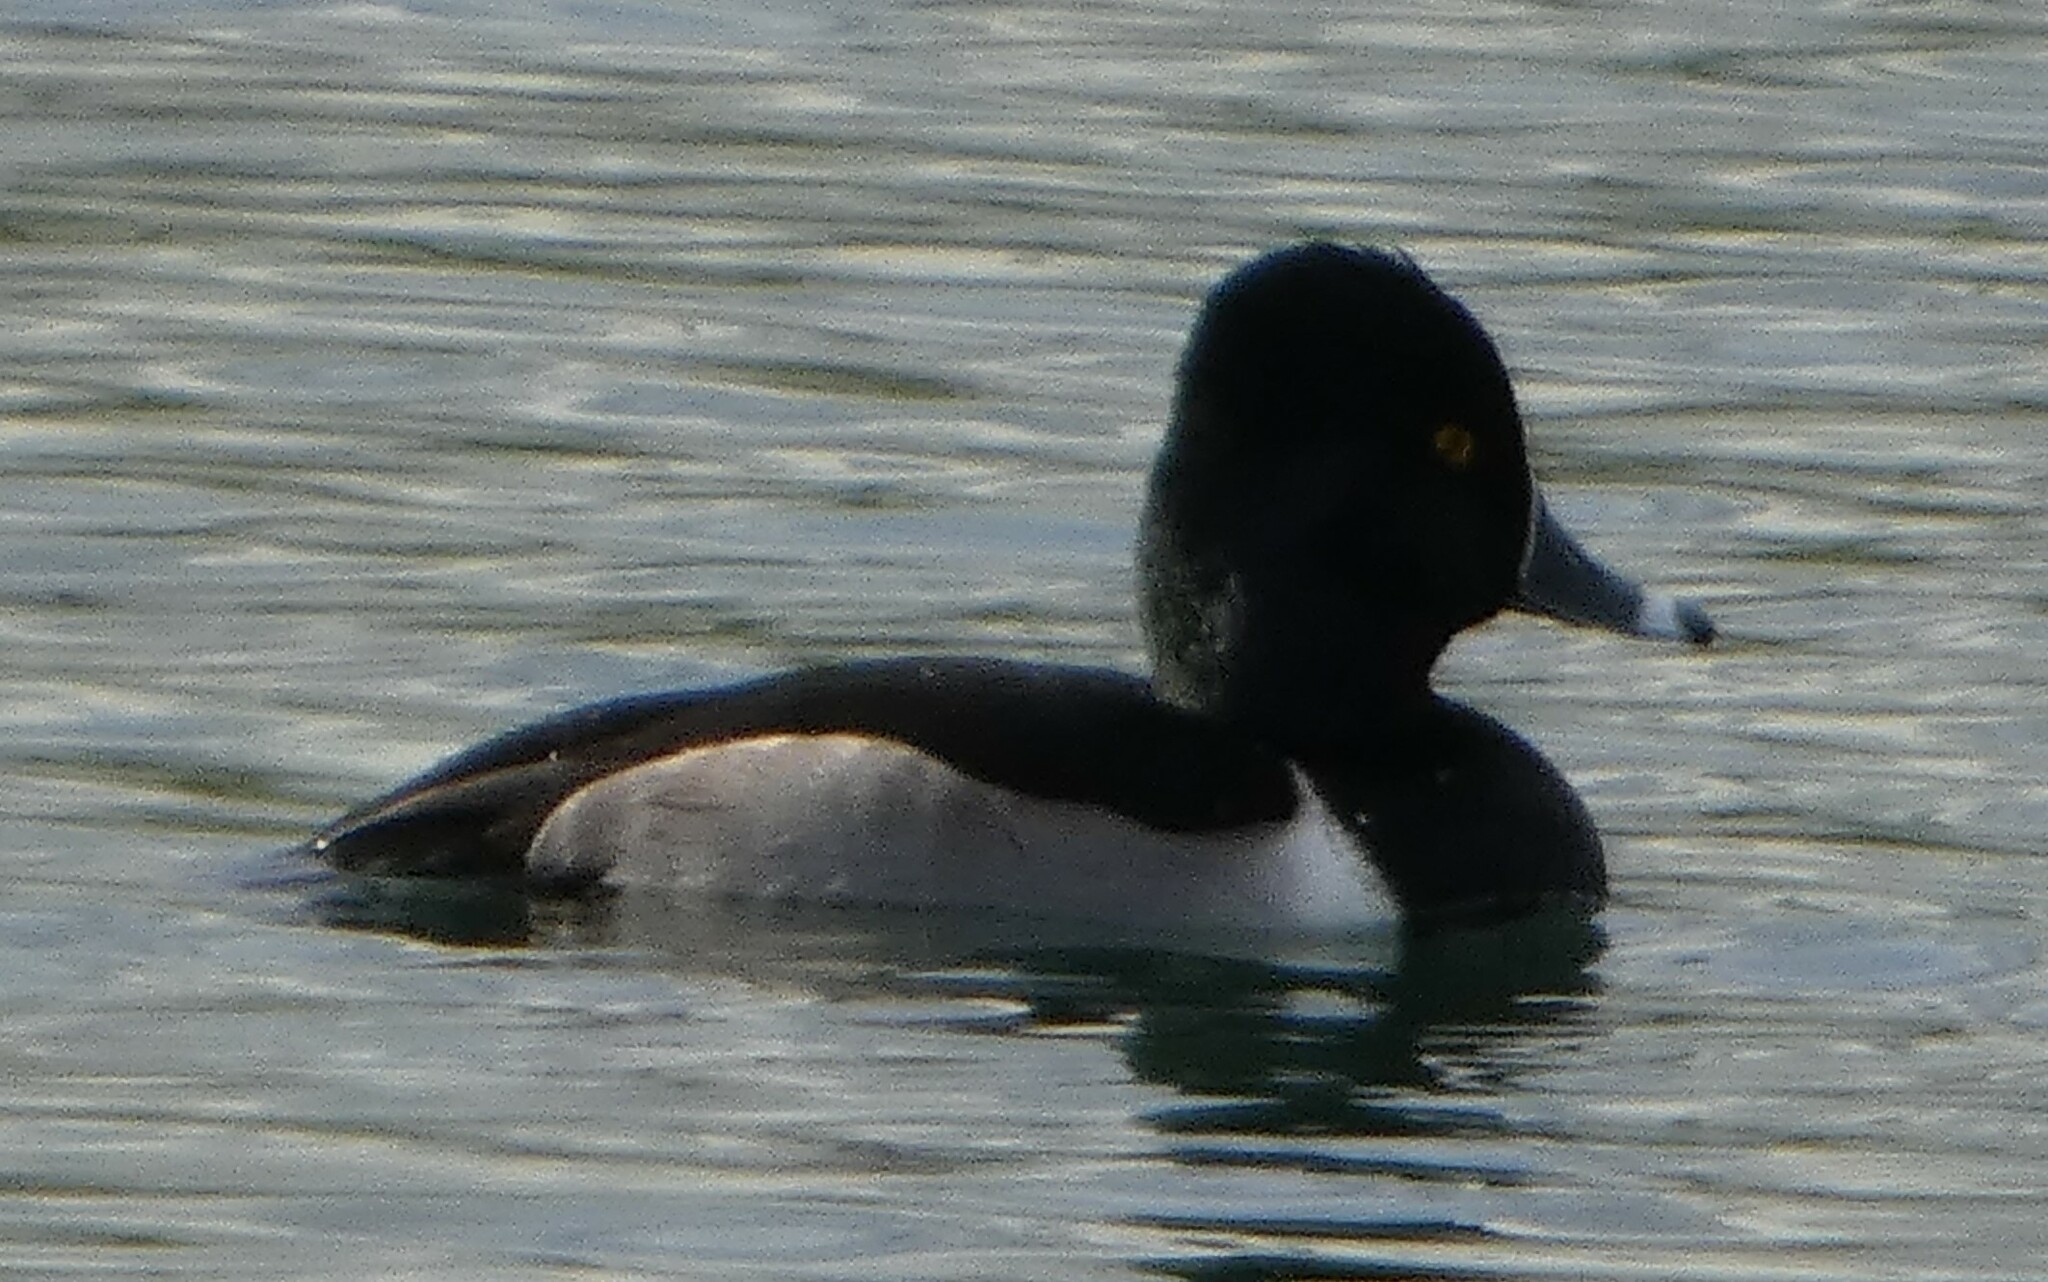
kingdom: Animalia
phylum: Chordata
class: Aves
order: Anseriformes
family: Anatidae
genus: Aythya
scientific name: Aythya collaris
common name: Ring-necked duck
